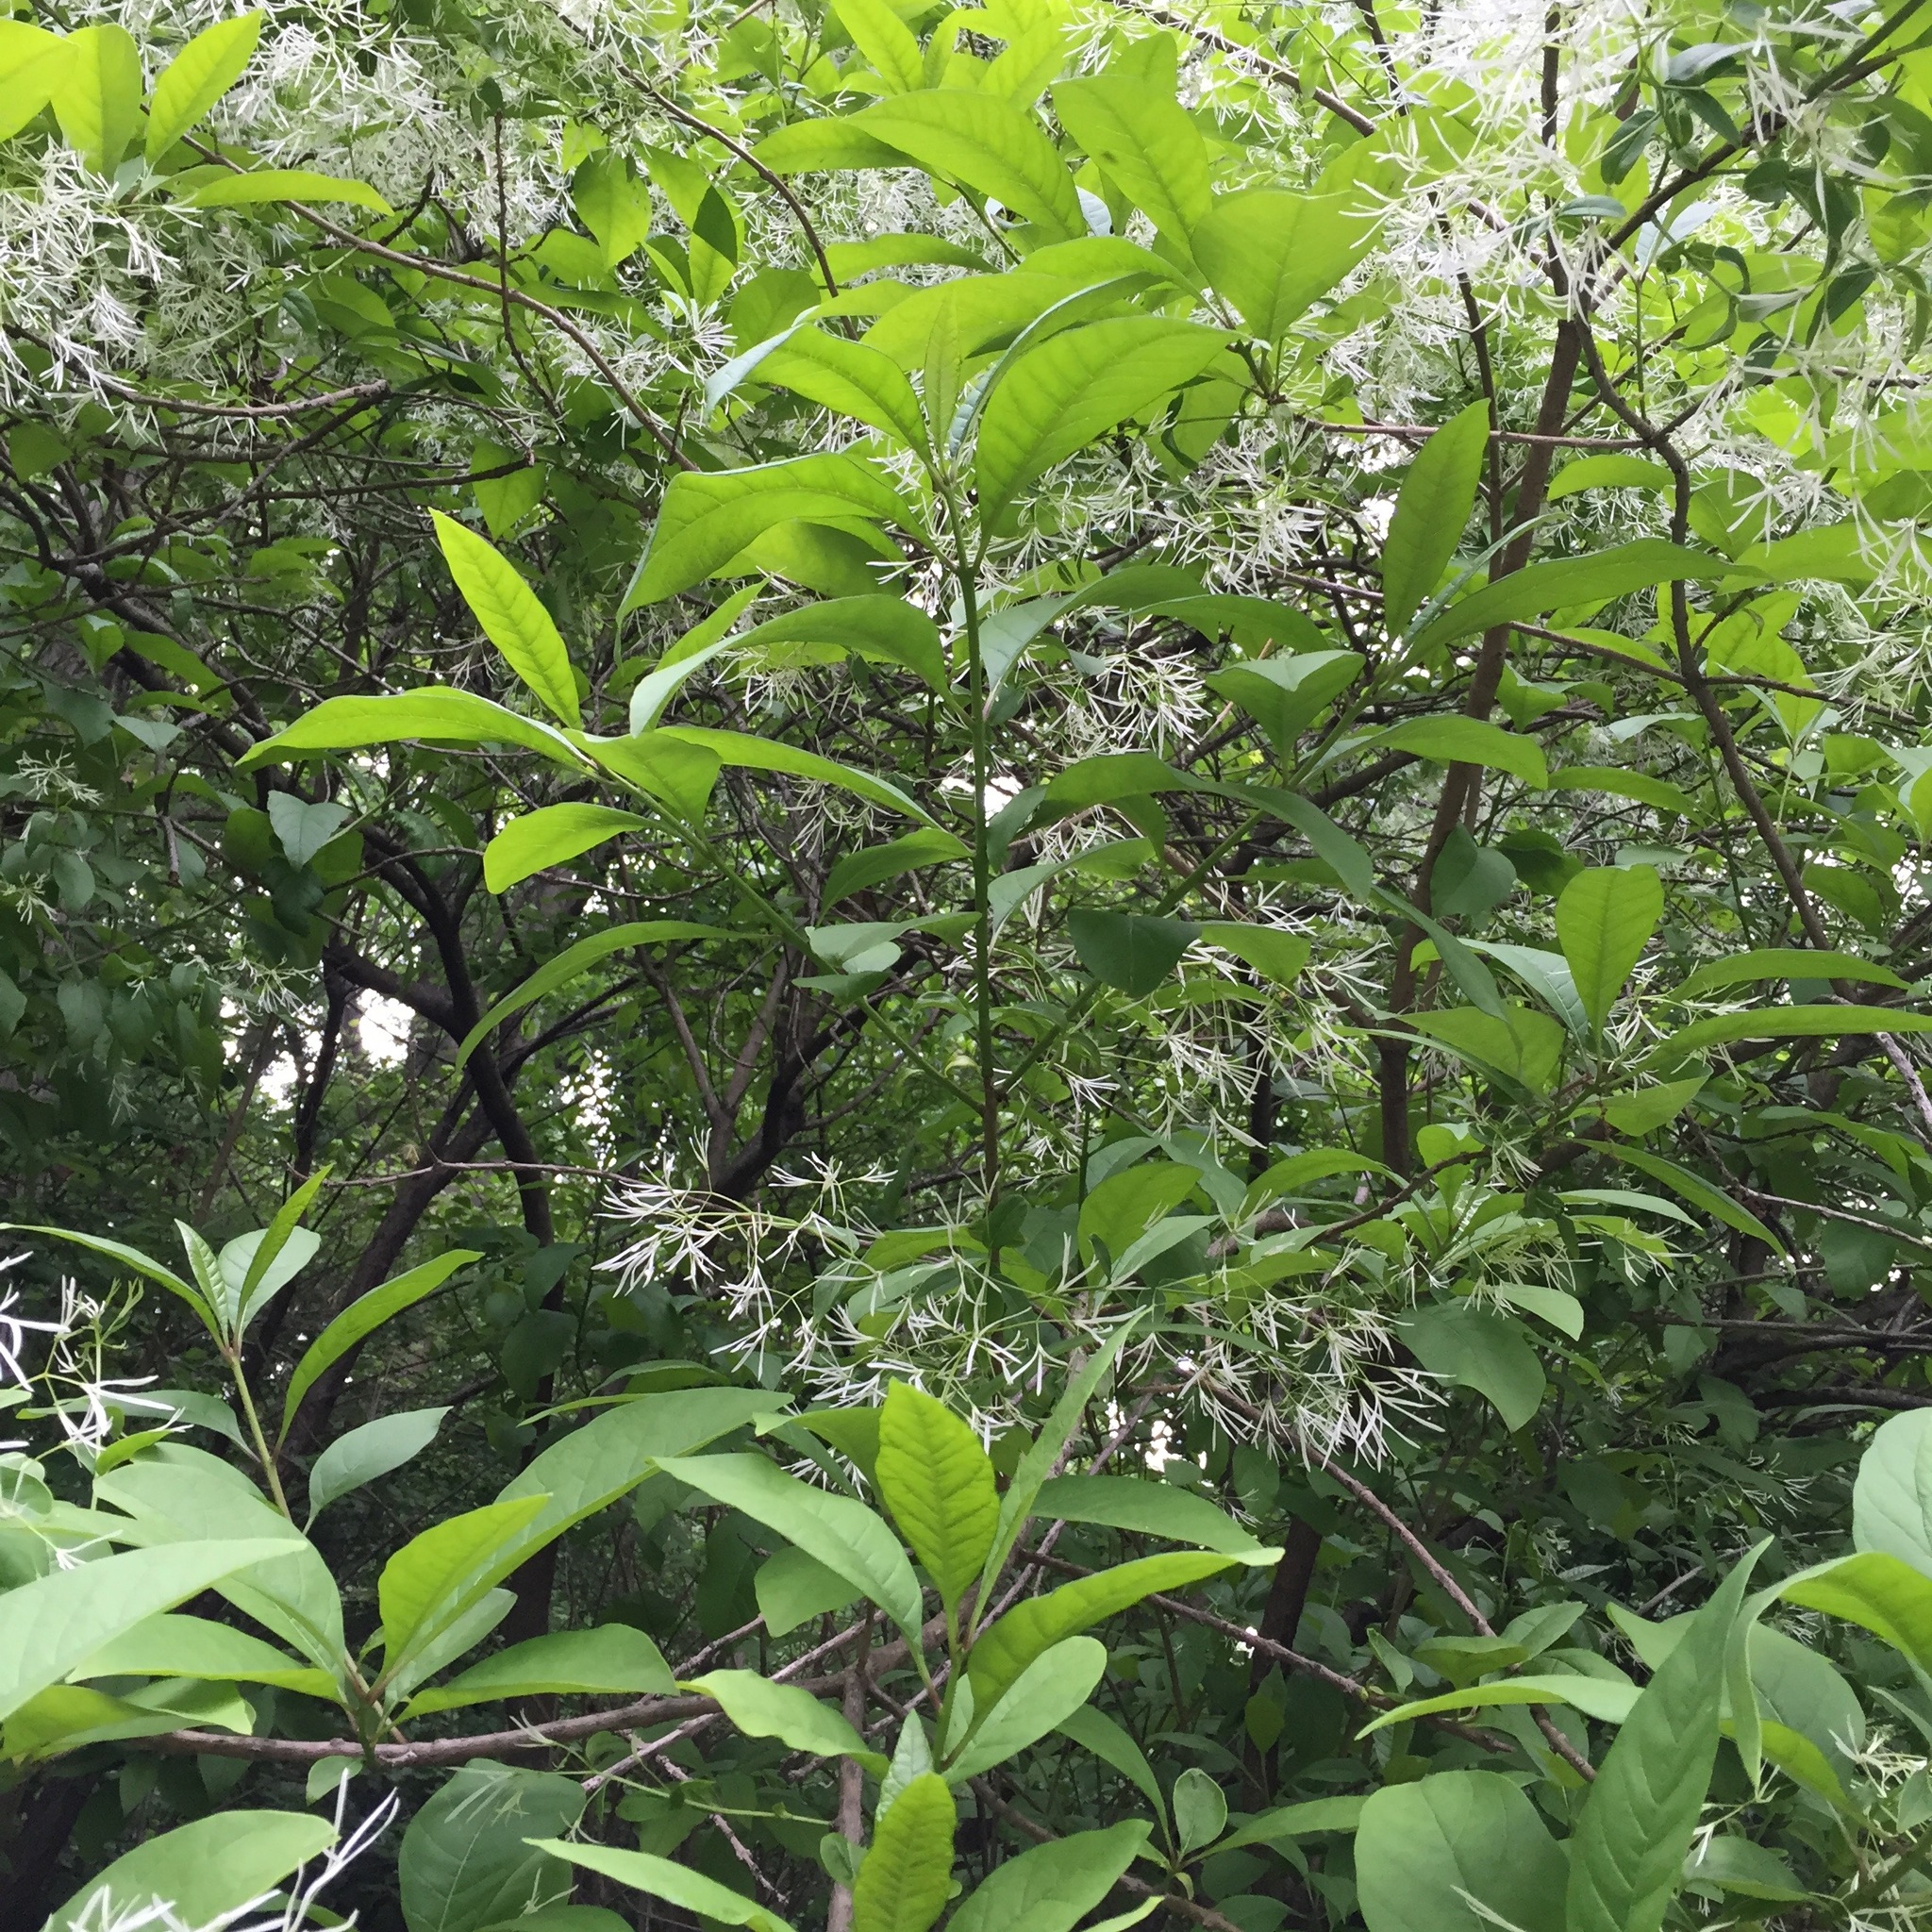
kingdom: Plantae
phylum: Tracheophyta
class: Magnoliopsida
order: Lamiales
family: Oleaceae
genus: Chionanthus
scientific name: Chionanthus virginicus
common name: American fringetree
